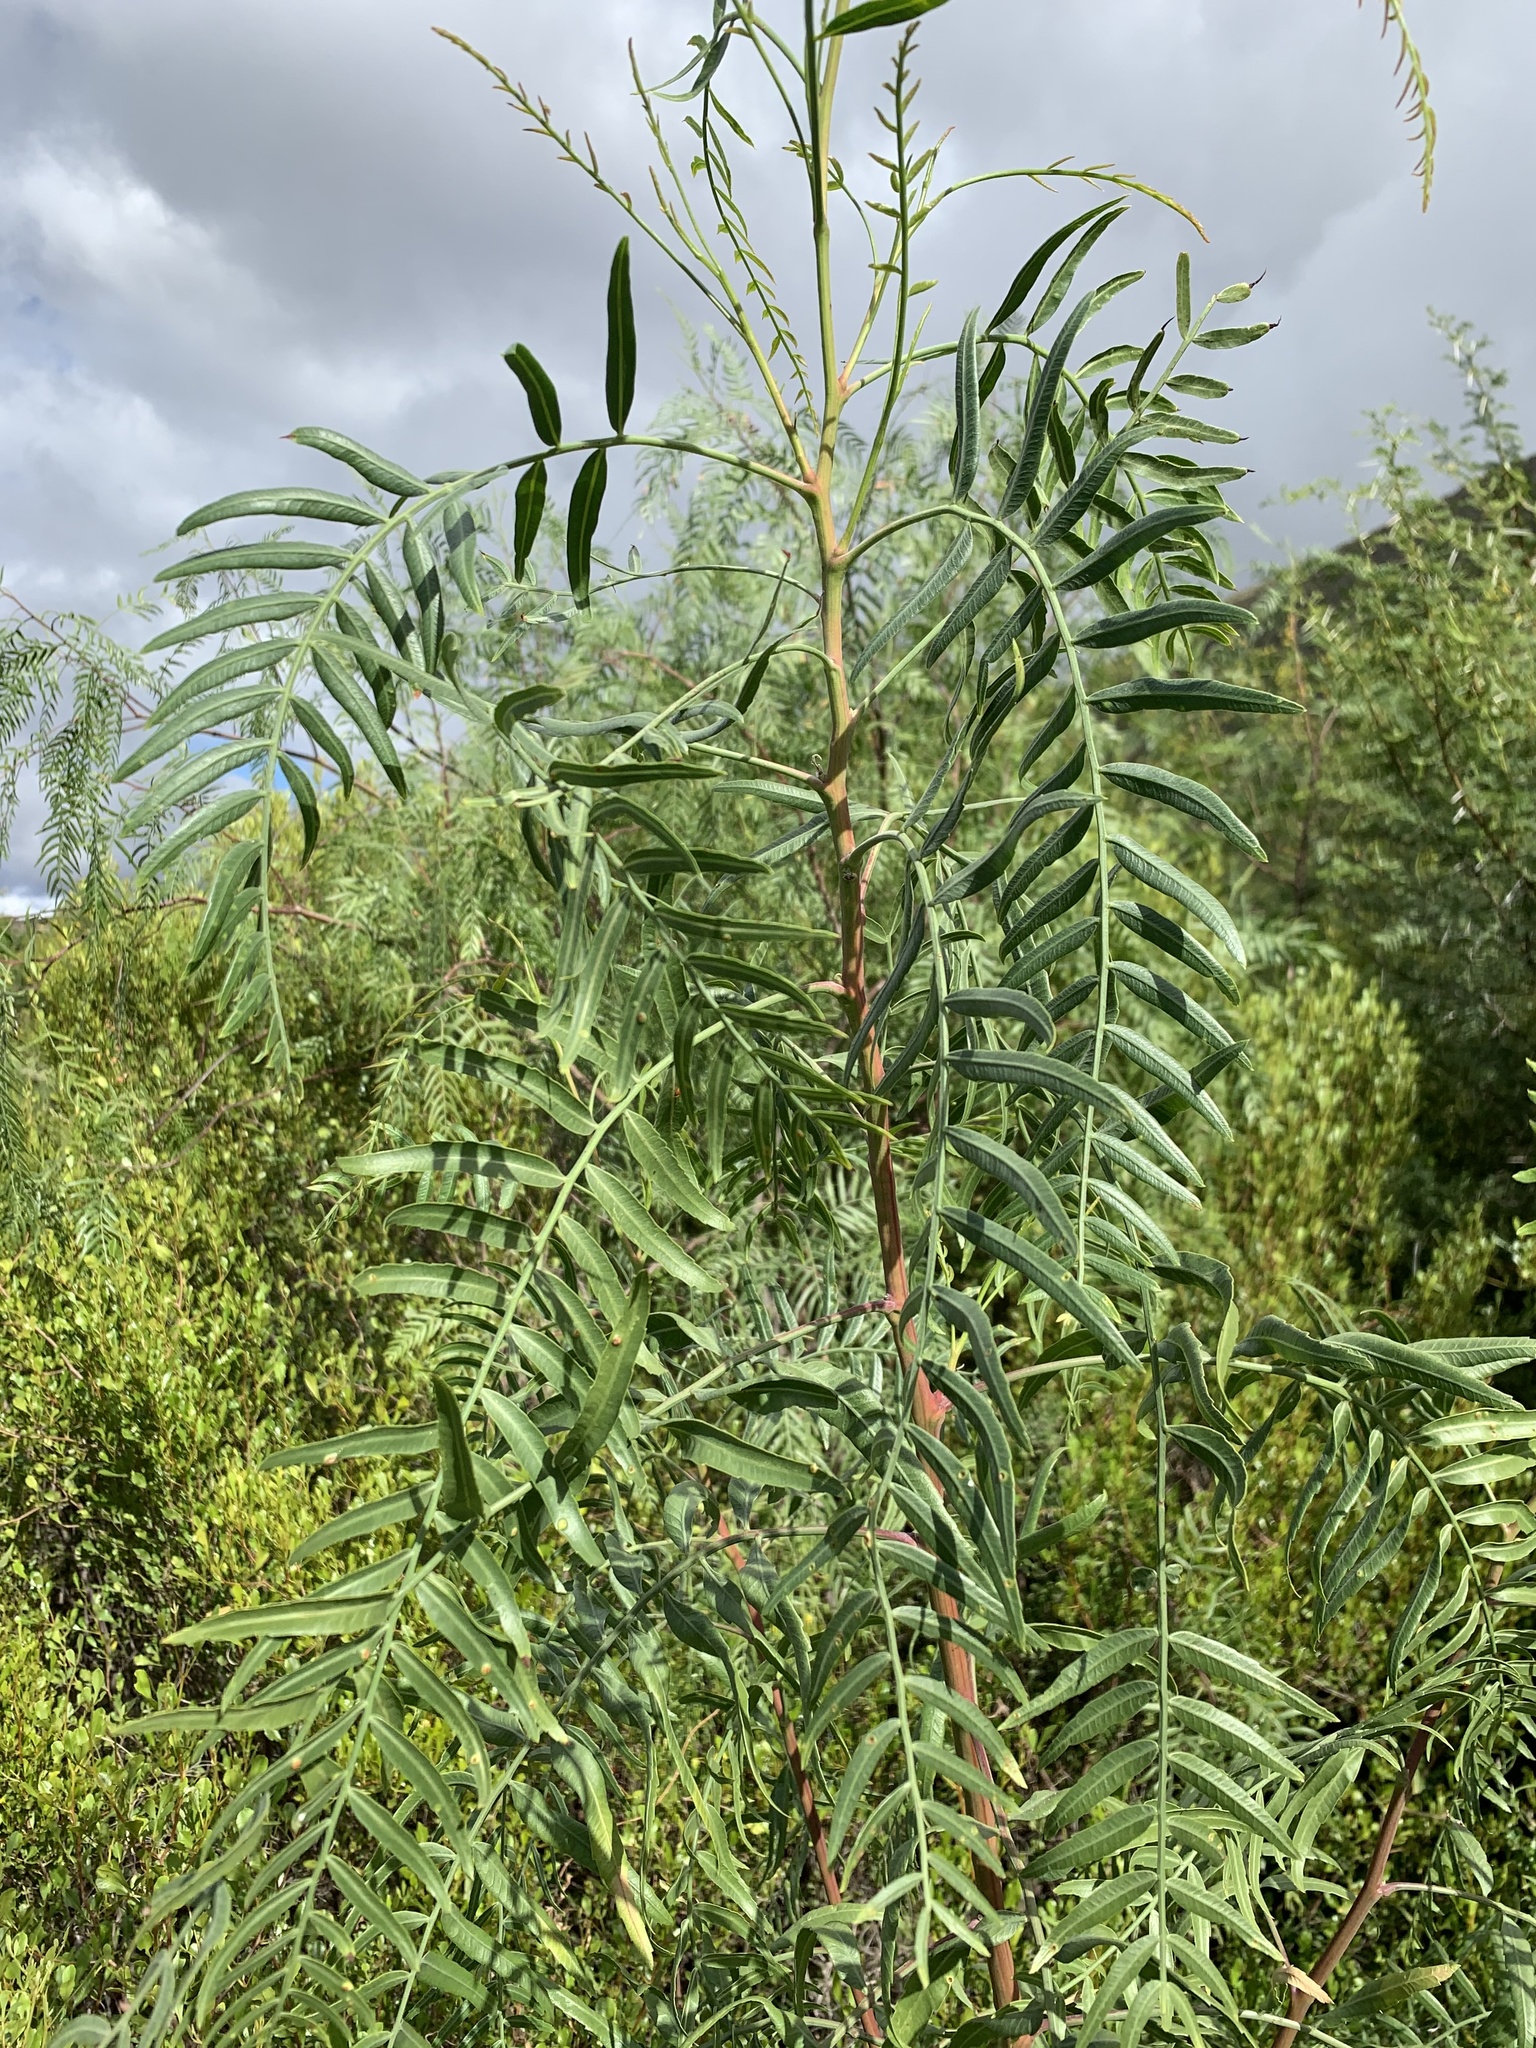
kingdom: Plantae
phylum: Tracheophyta
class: Magnoliopsida
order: Sapindales
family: Anacardiaceae
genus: Schinus
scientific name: Schinus molle
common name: Peruvian peppertree
